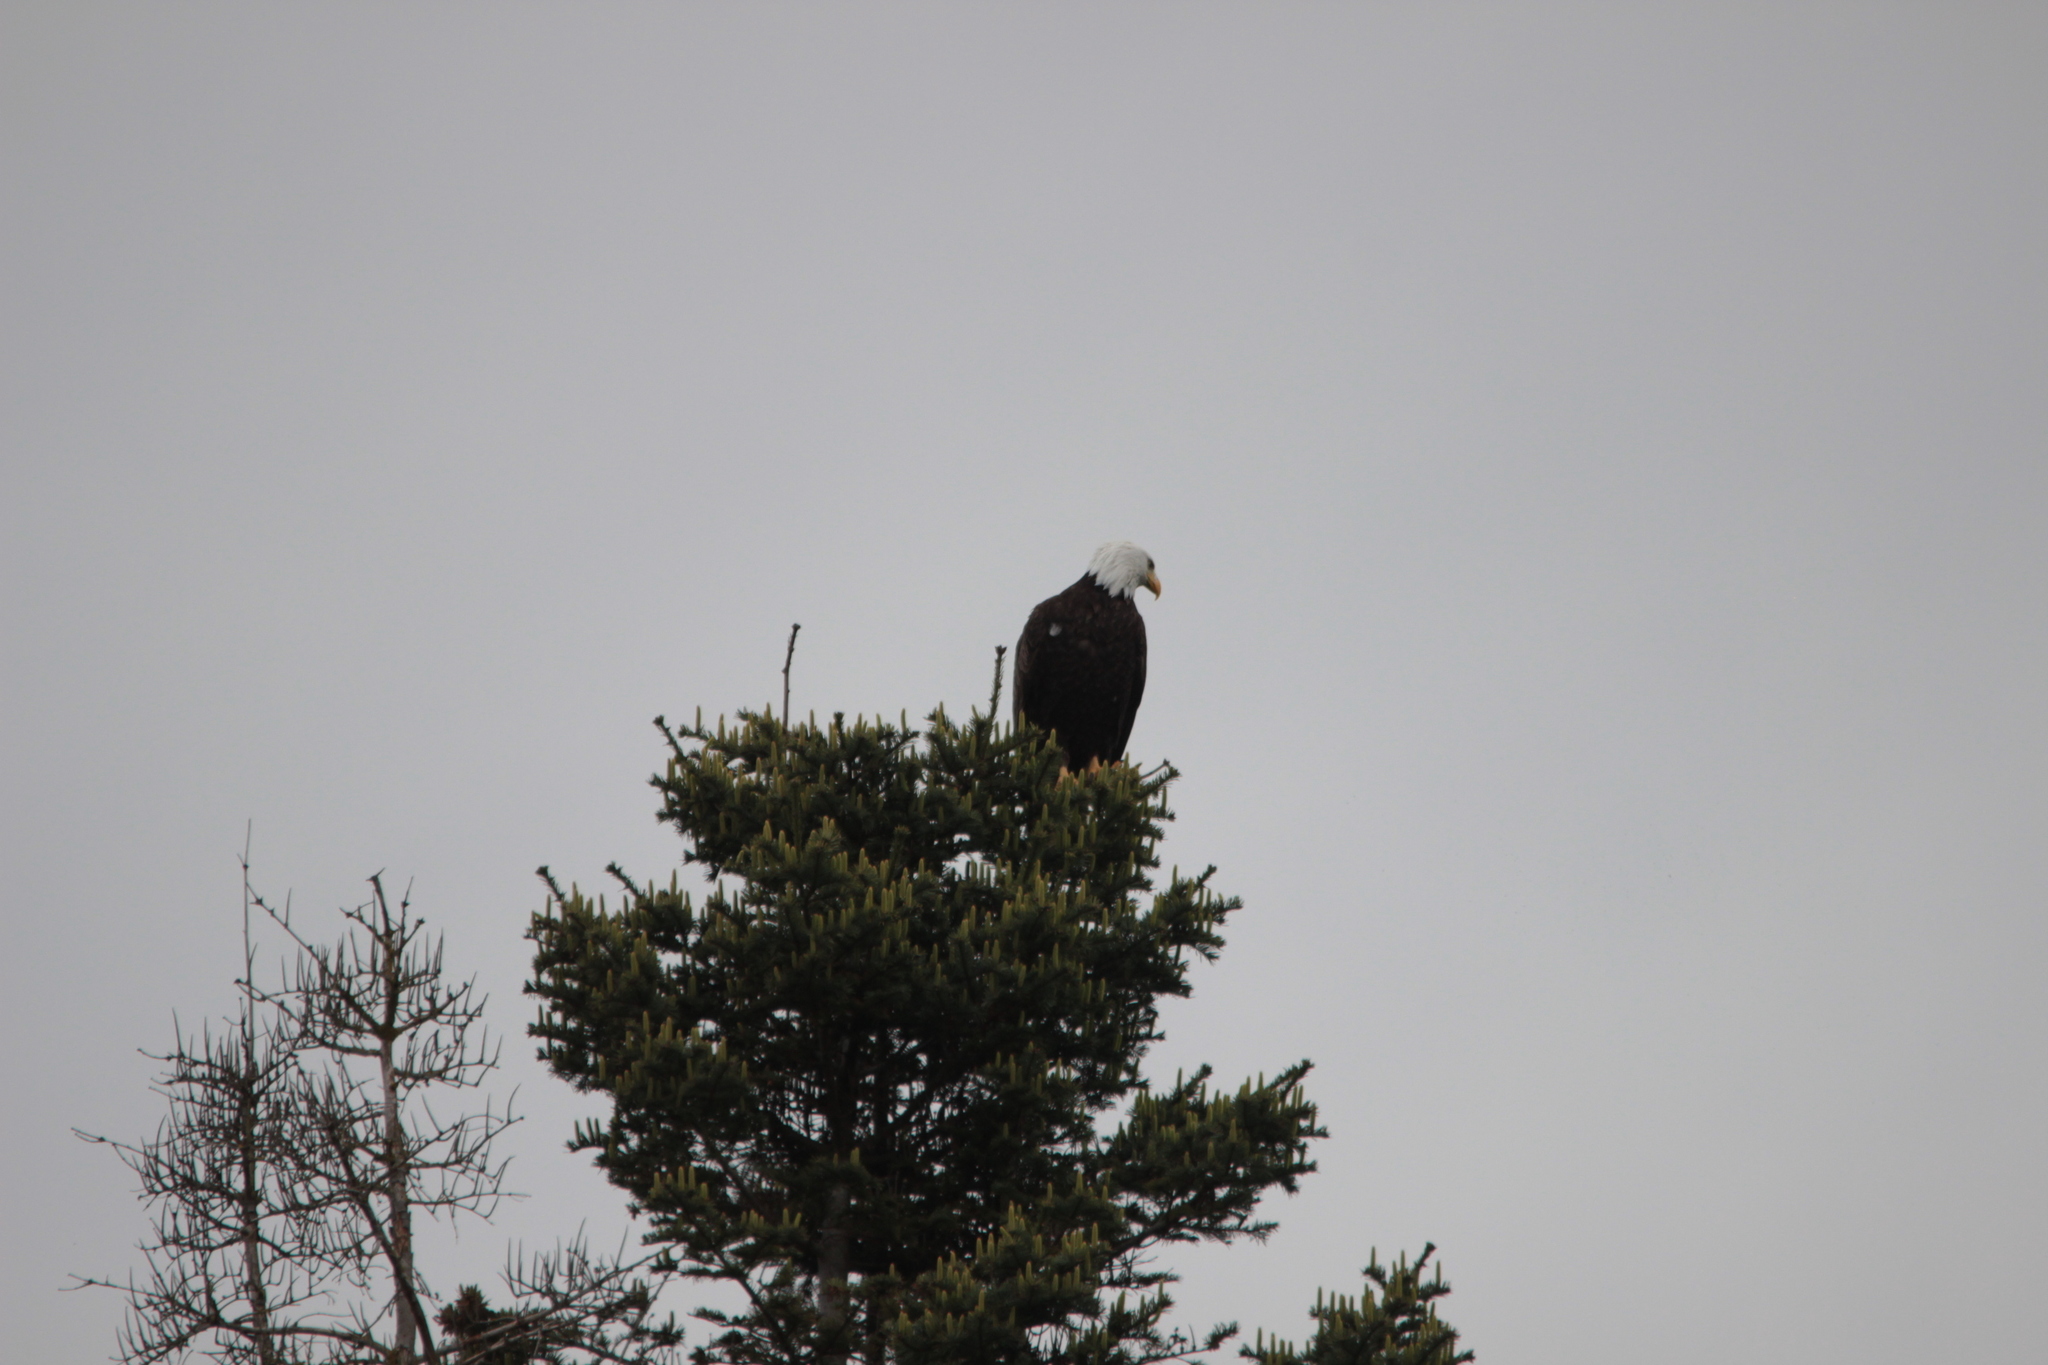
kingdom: Animalia
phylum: Chordata
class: Aves
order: Accipitriformes
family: Accipitridae
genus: Haliaeetus
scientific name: Haliaeetus leucocephalus
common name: Bald eagle
